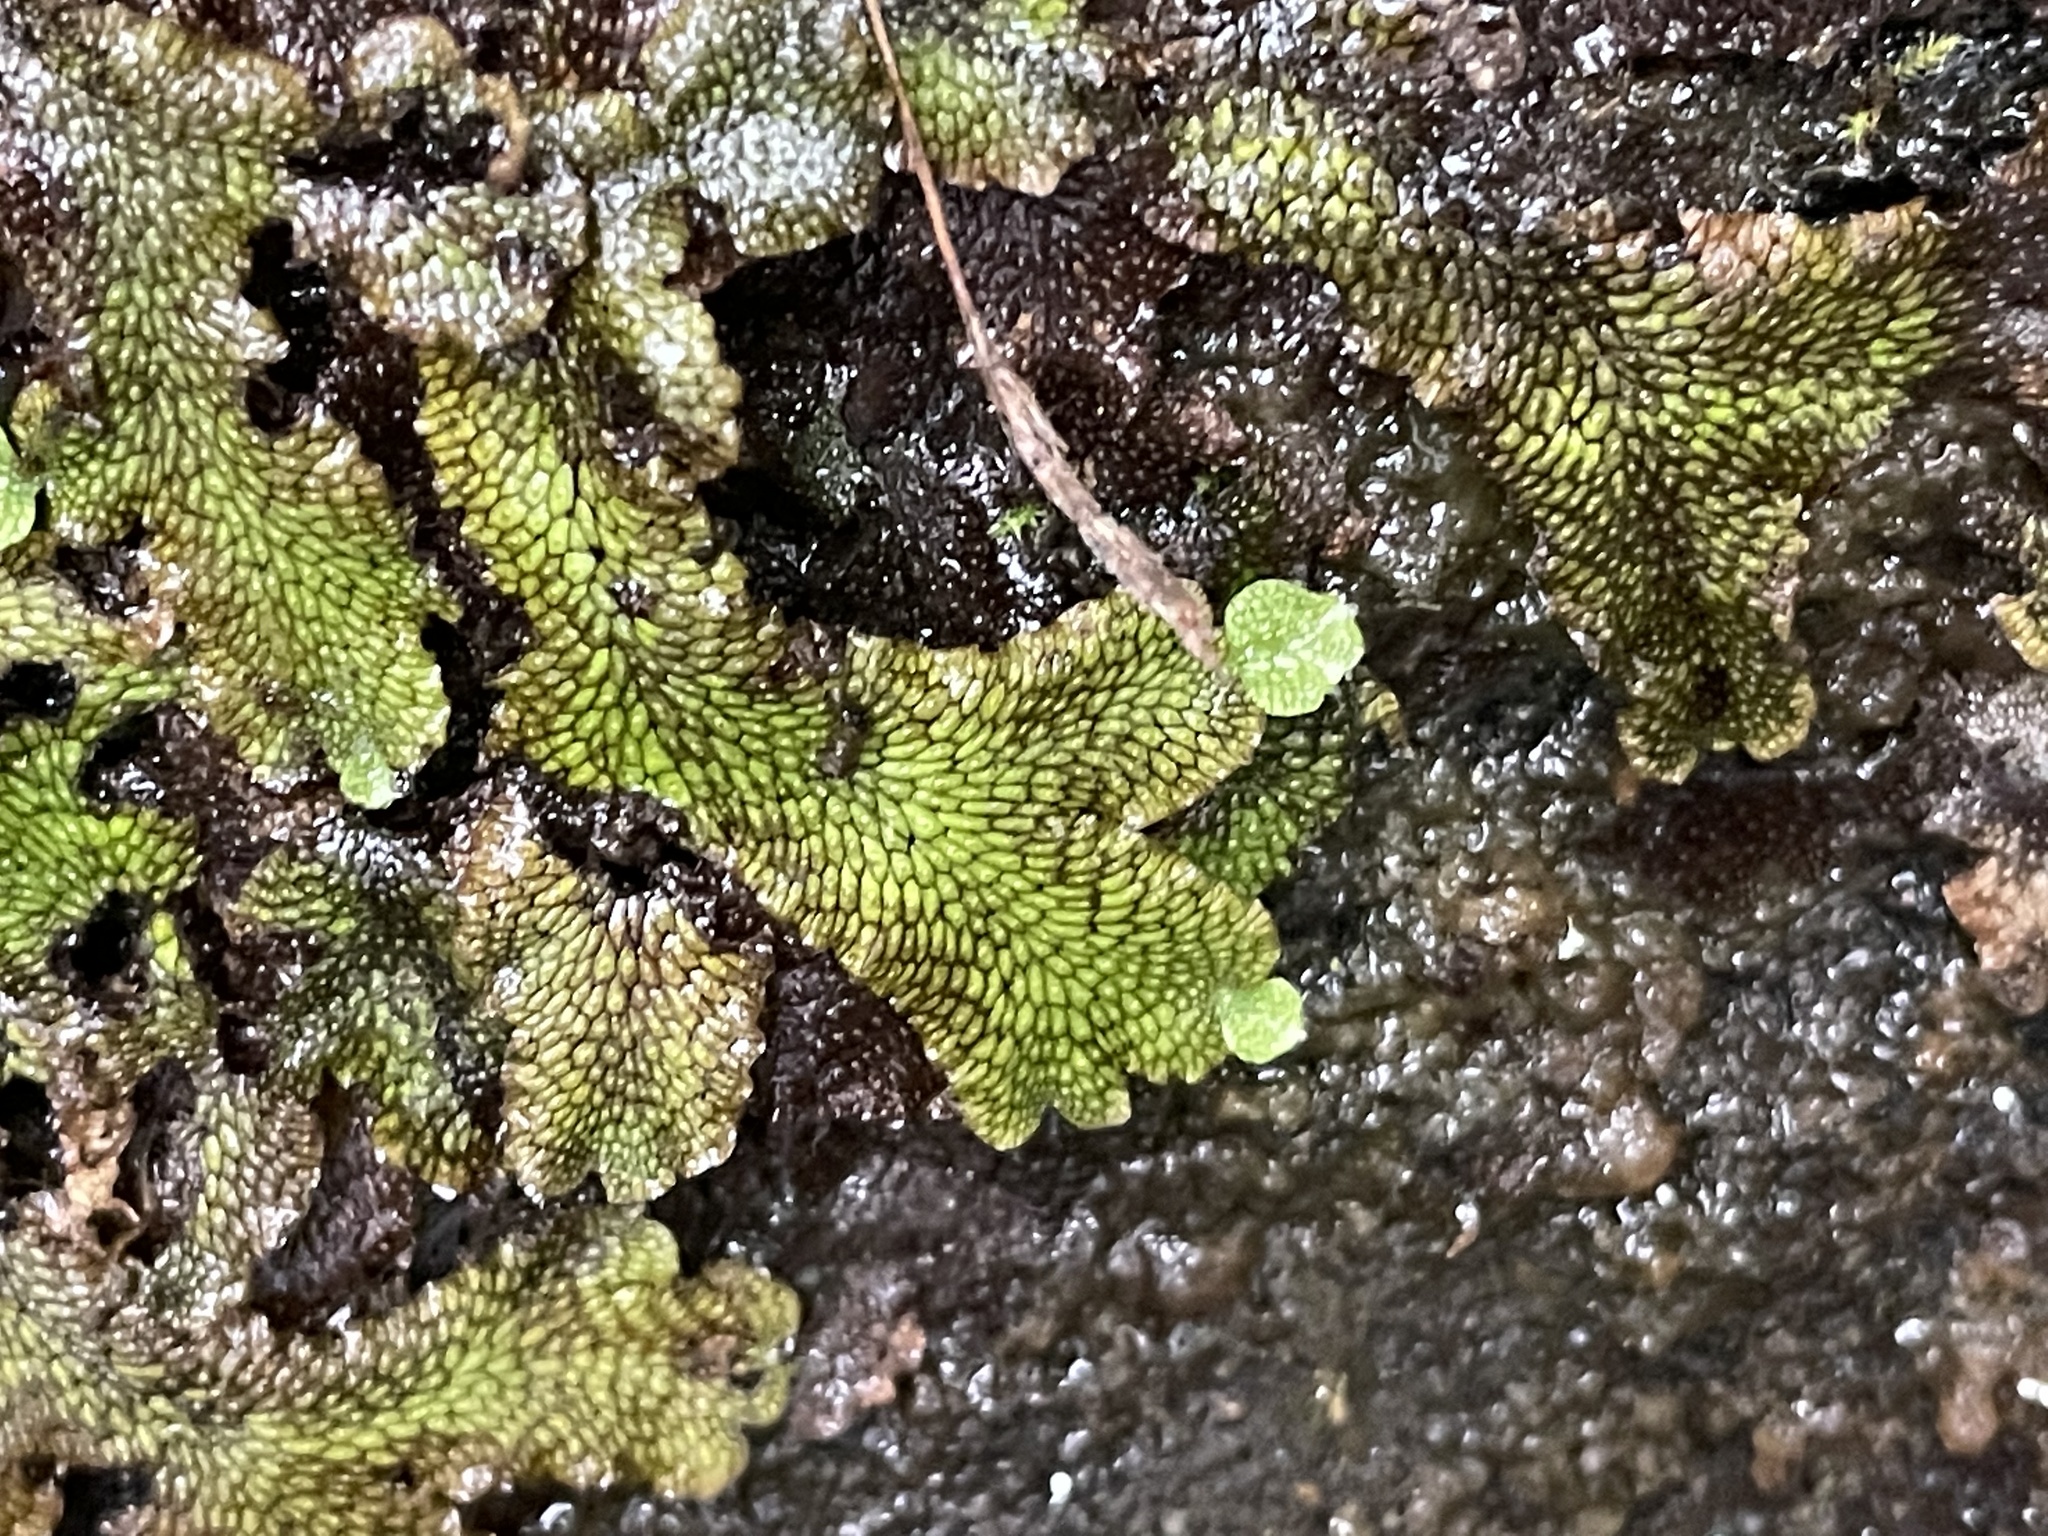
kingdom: Plantae
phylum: Marchantiophyta
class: Marchantiopsida
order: Marchantiales
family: Conocephalaceae
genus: Conocephalum
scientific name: Conocephalum salebrosum
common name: Cat-tongue liverwort
